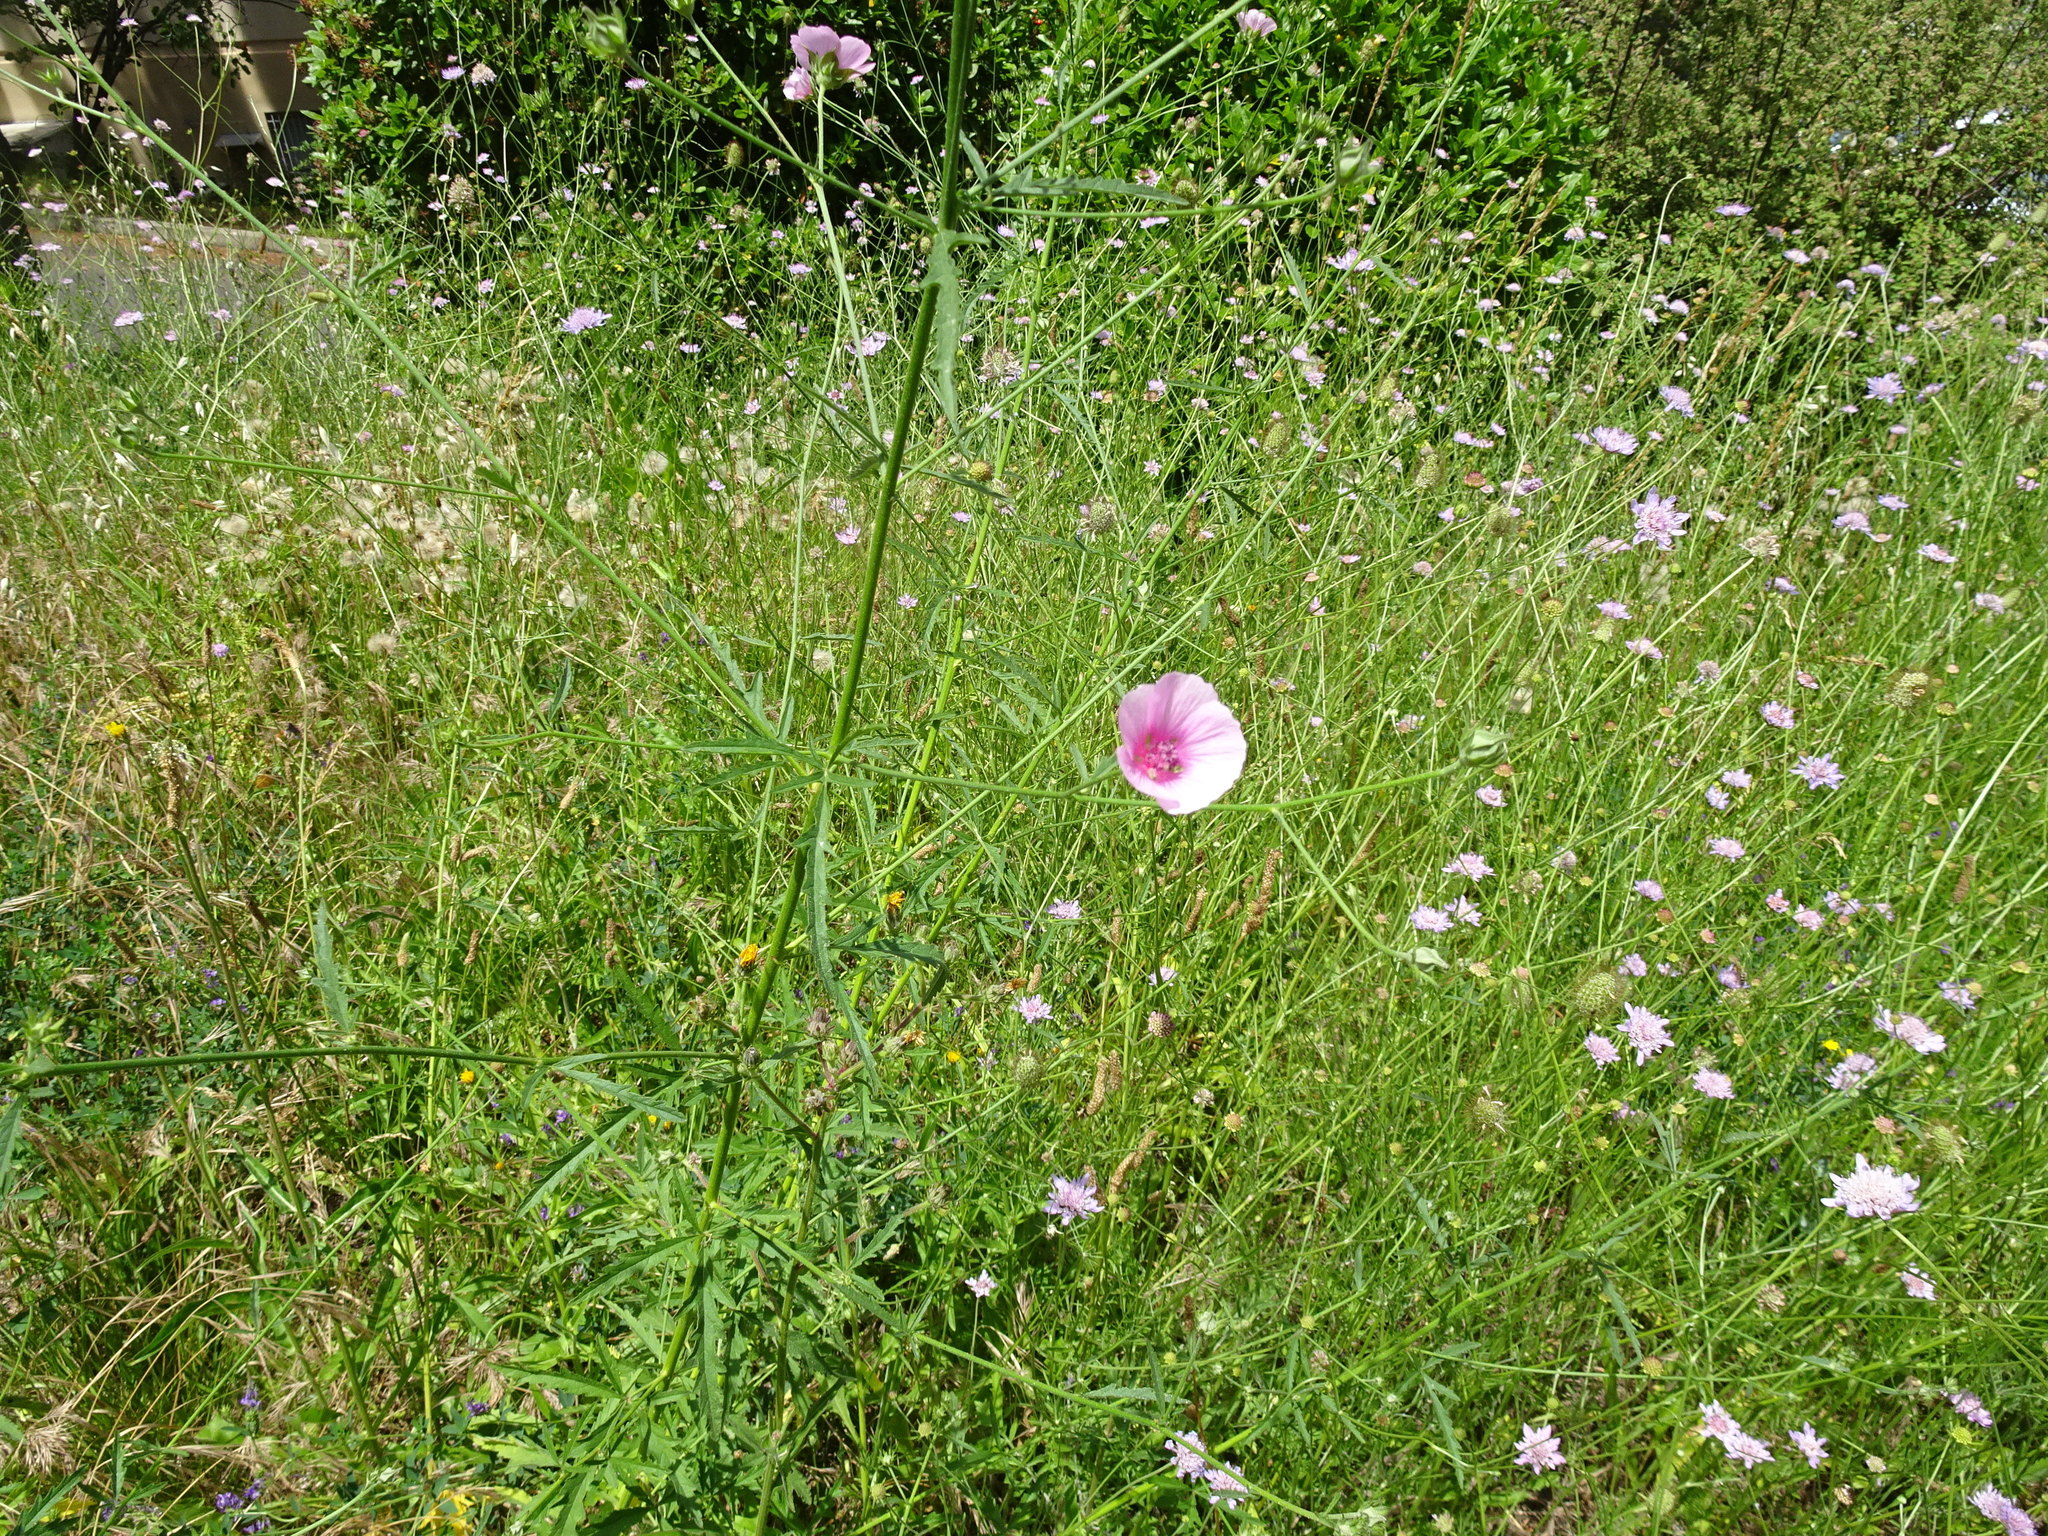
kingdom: Plantae
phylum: Tracheophyta
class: Magnoliopsida
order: Malvales
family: Malvaceae
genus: Althaea
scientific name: Althaea cannabina
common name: Palm-leaf marshmallow
